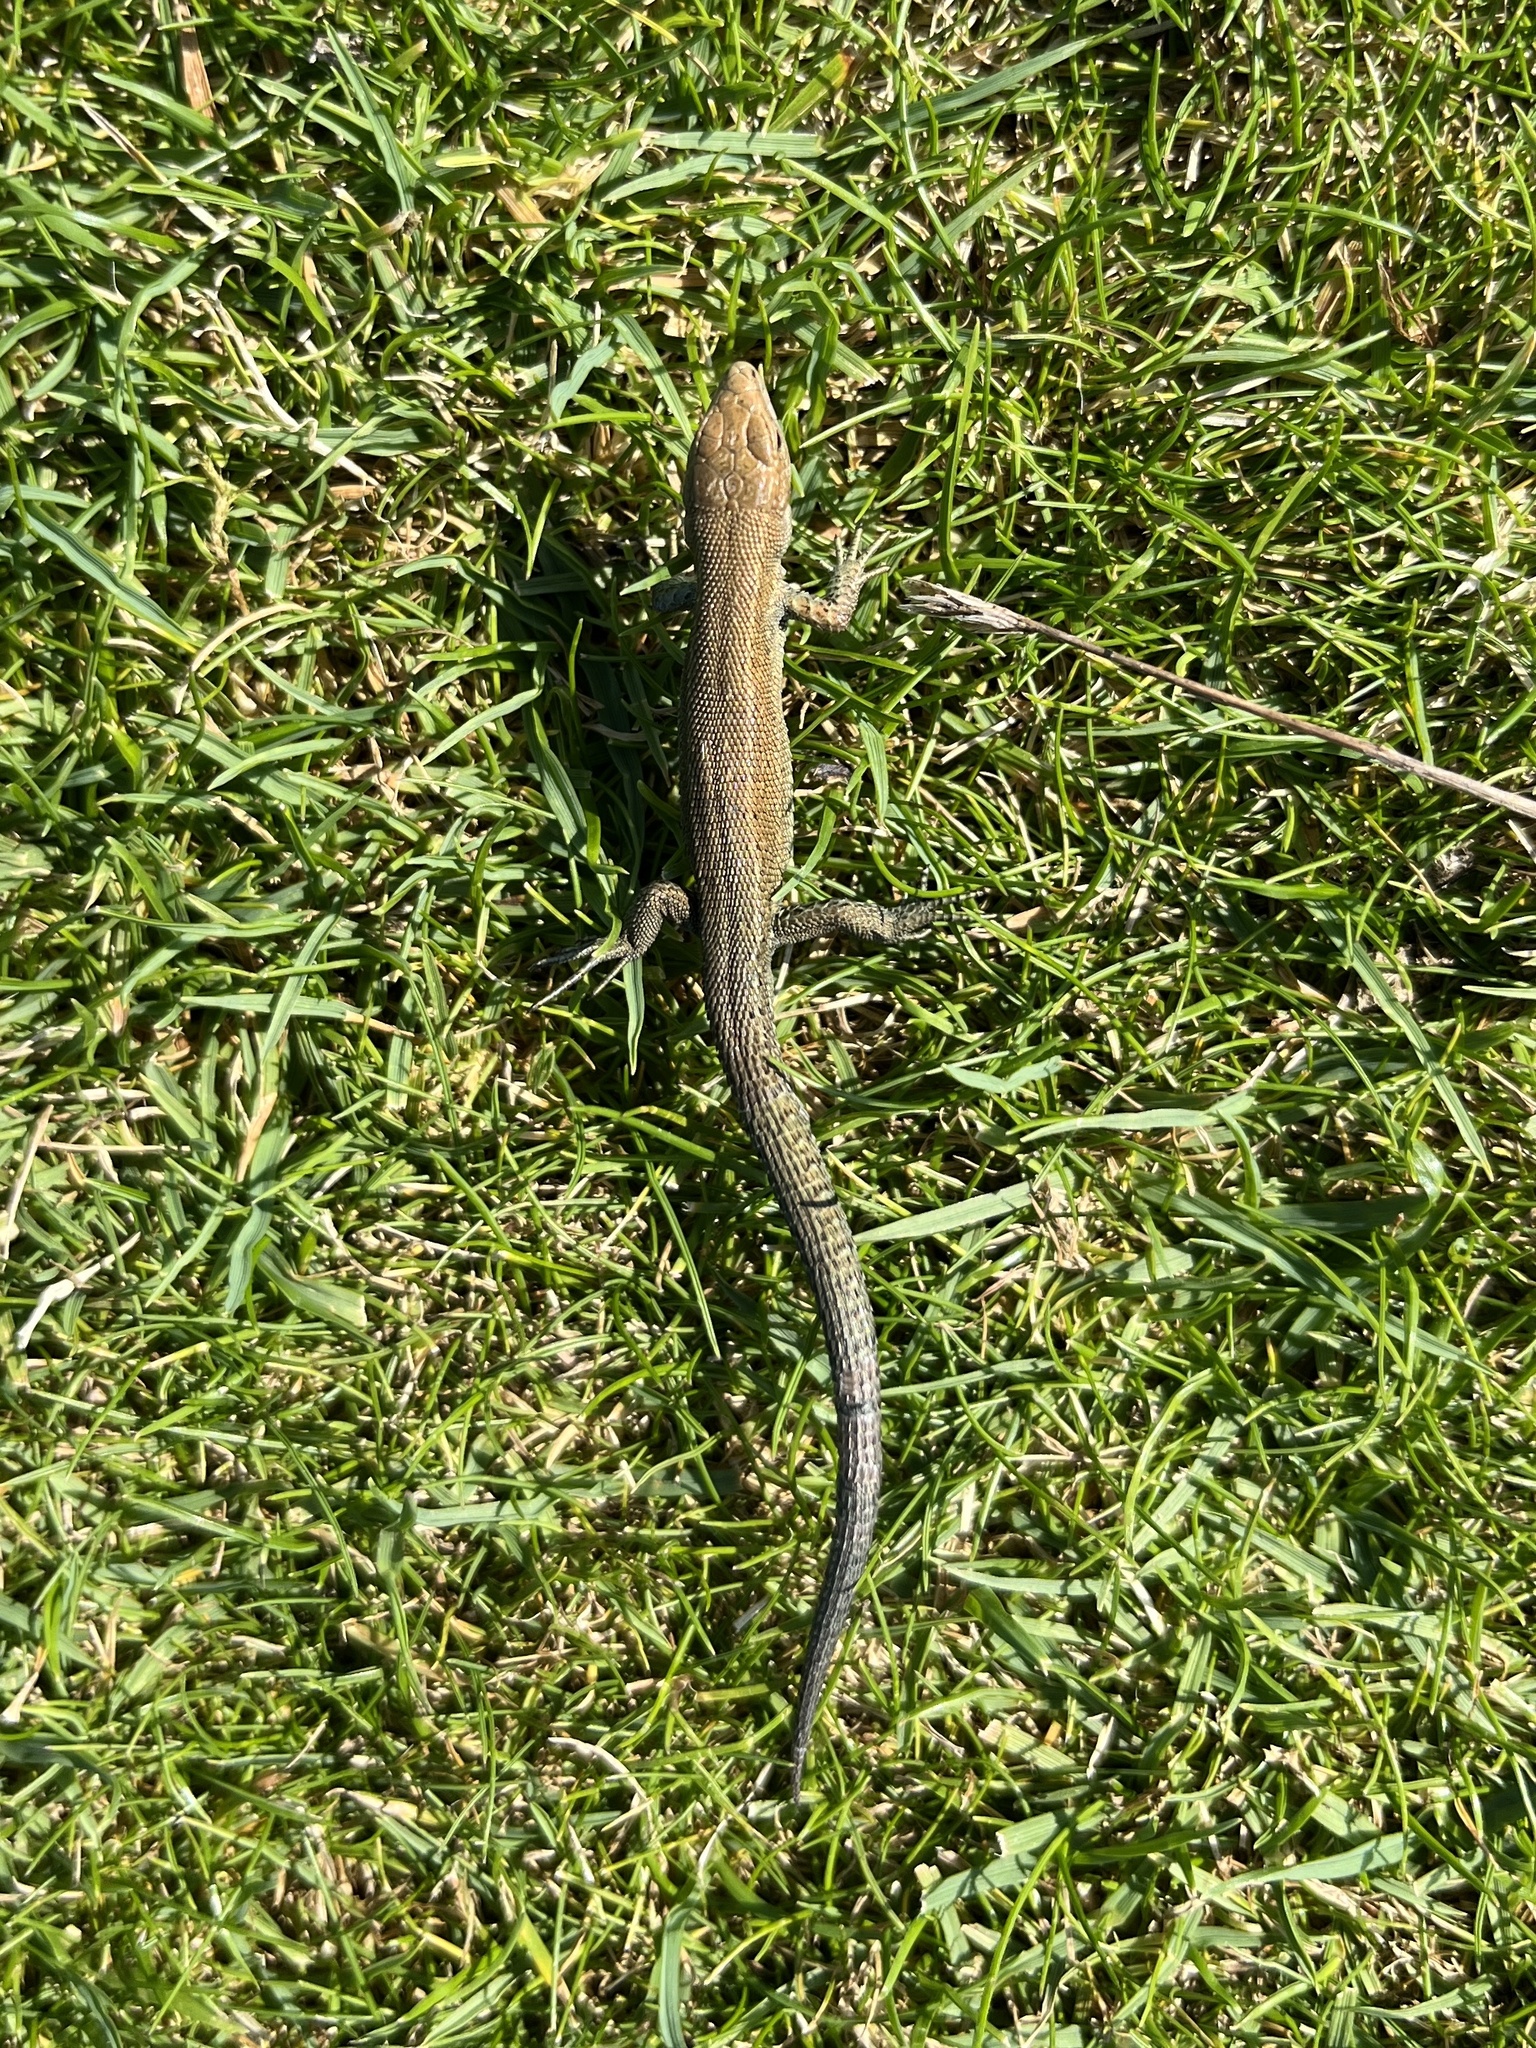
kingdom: Animalia
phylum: Chordata
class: Squamata
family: Lacertidae
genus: Zootoca
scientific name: Zootoca vivipara
